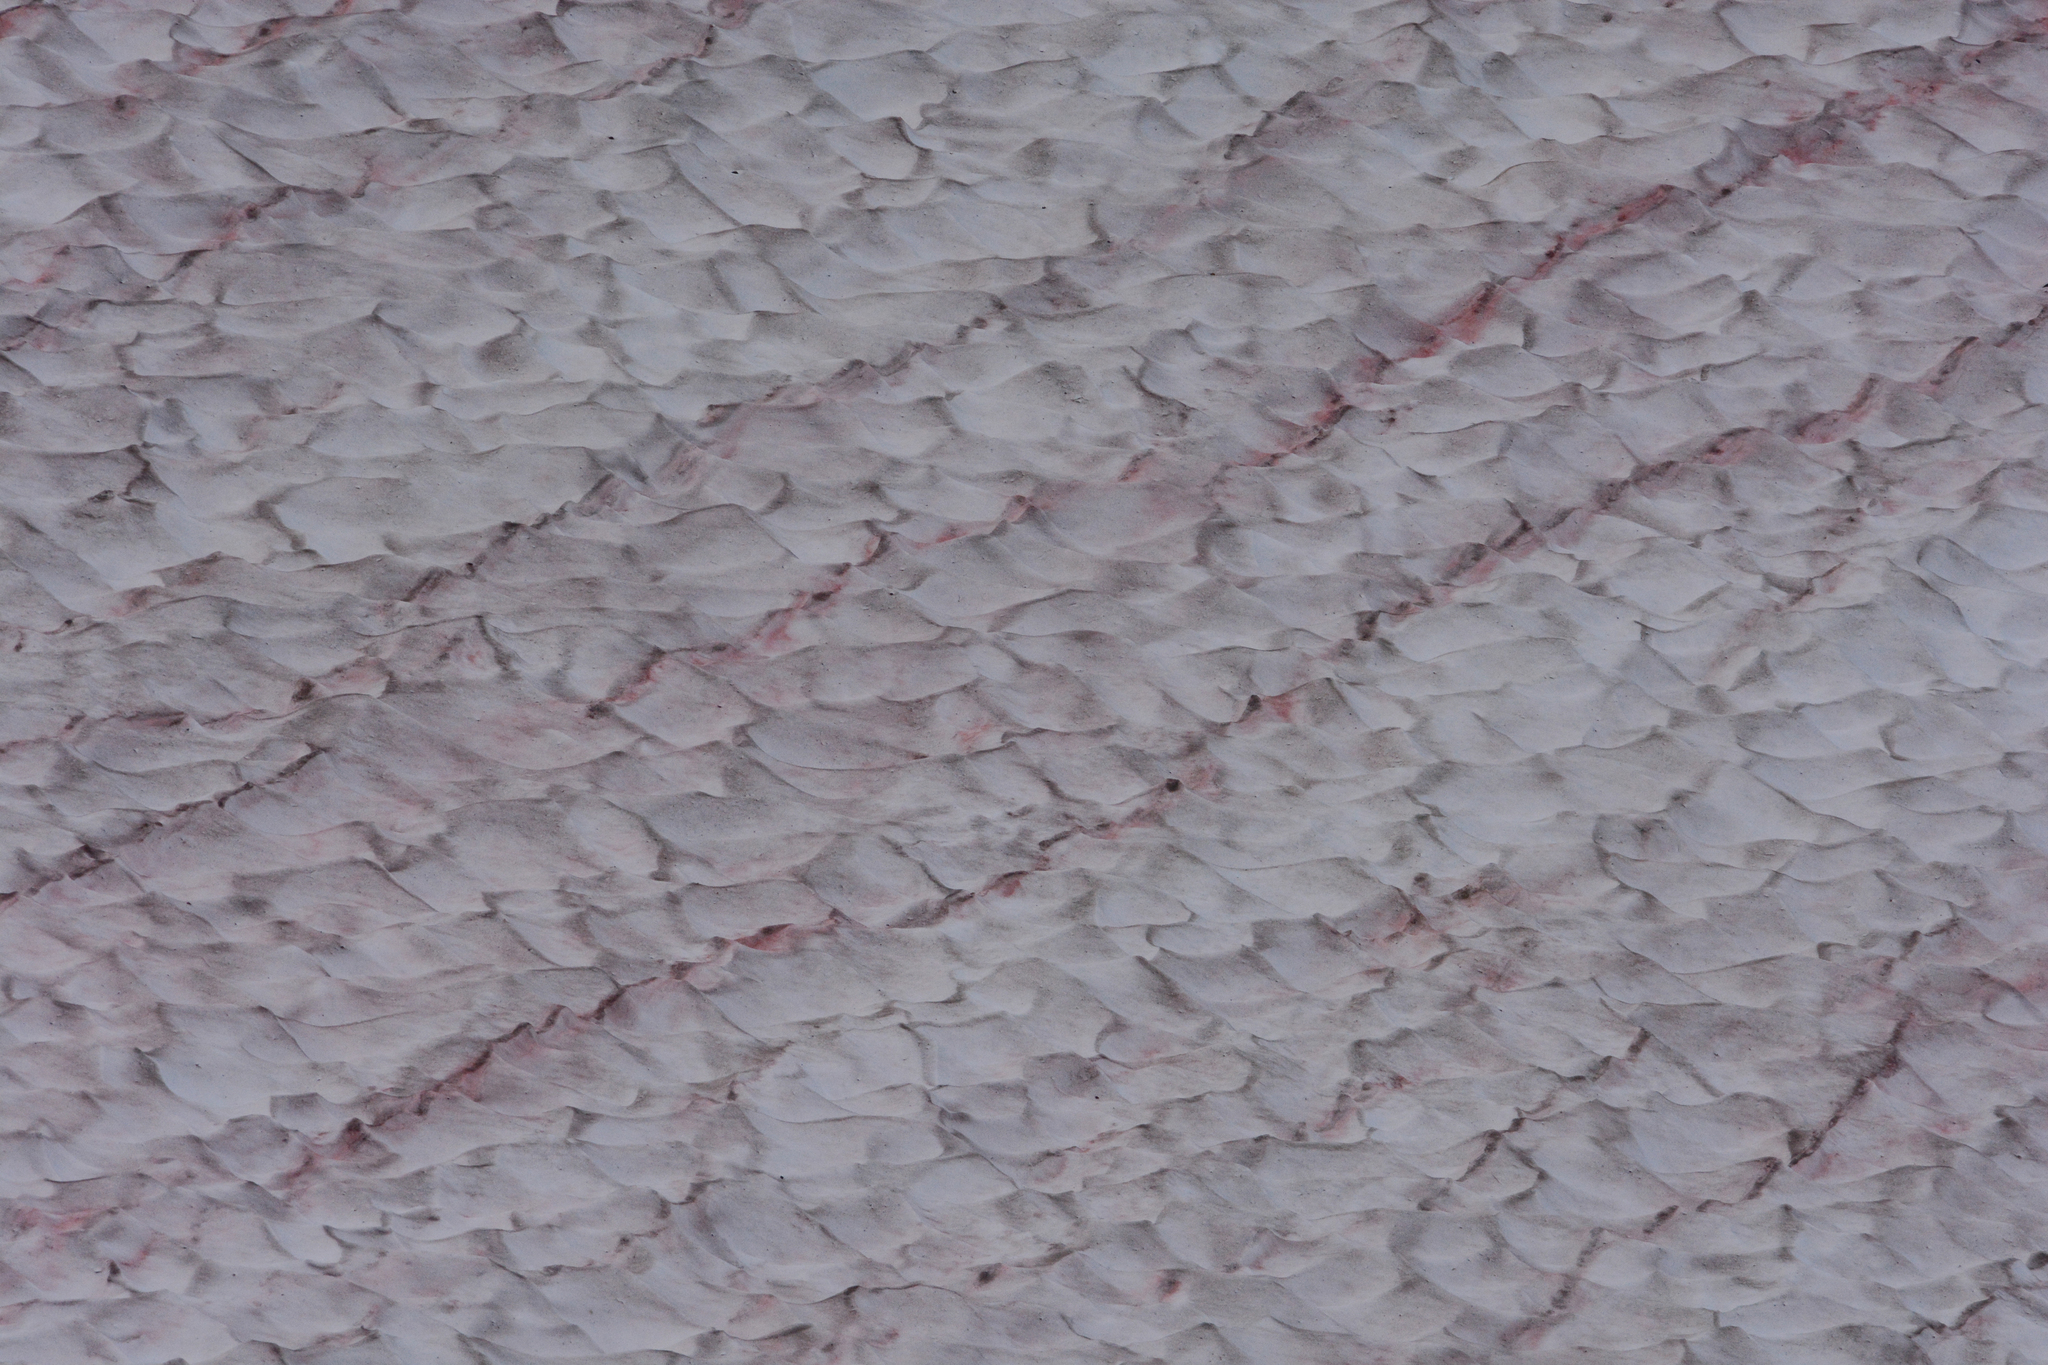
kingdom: Plantae
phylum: Chlorophyta
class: Chlorophyceae
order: Volvocales
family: Chlamydomonadaceae
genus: Chlamydomonas
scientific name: Chlamydomonas nivalis
